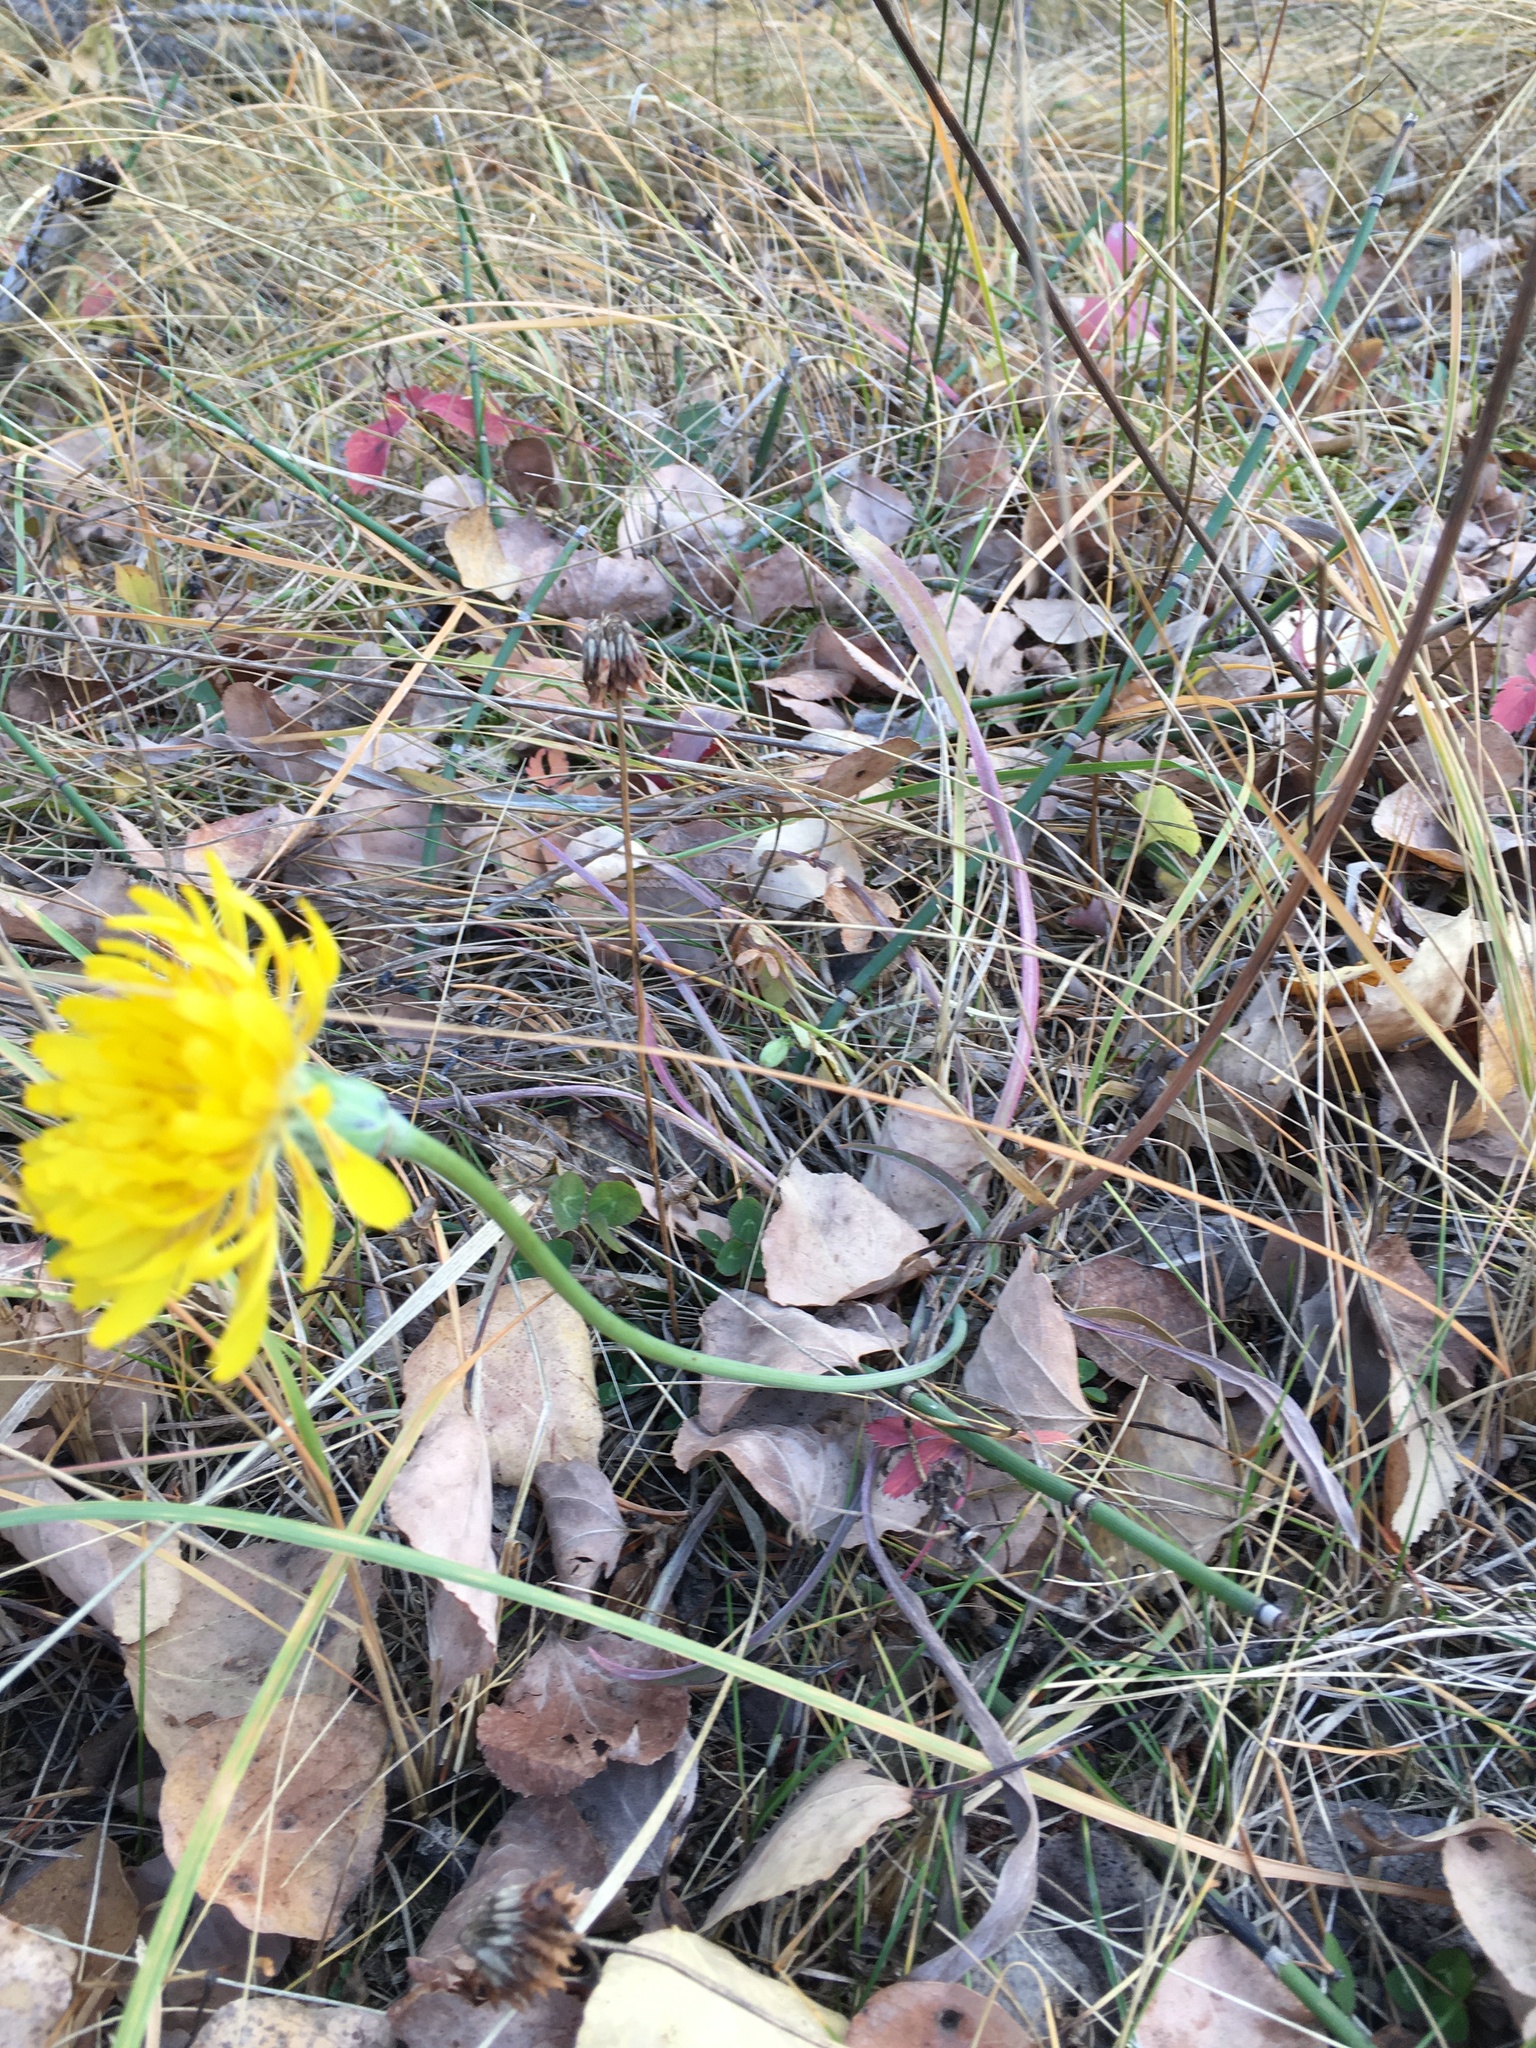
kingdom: Plantae
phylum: Tracheophyta
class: Magnoliopsida
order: Asterales
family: Asteraceae
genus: Agoseris
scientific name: Agoseris glauca
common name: Prairie agoseris
